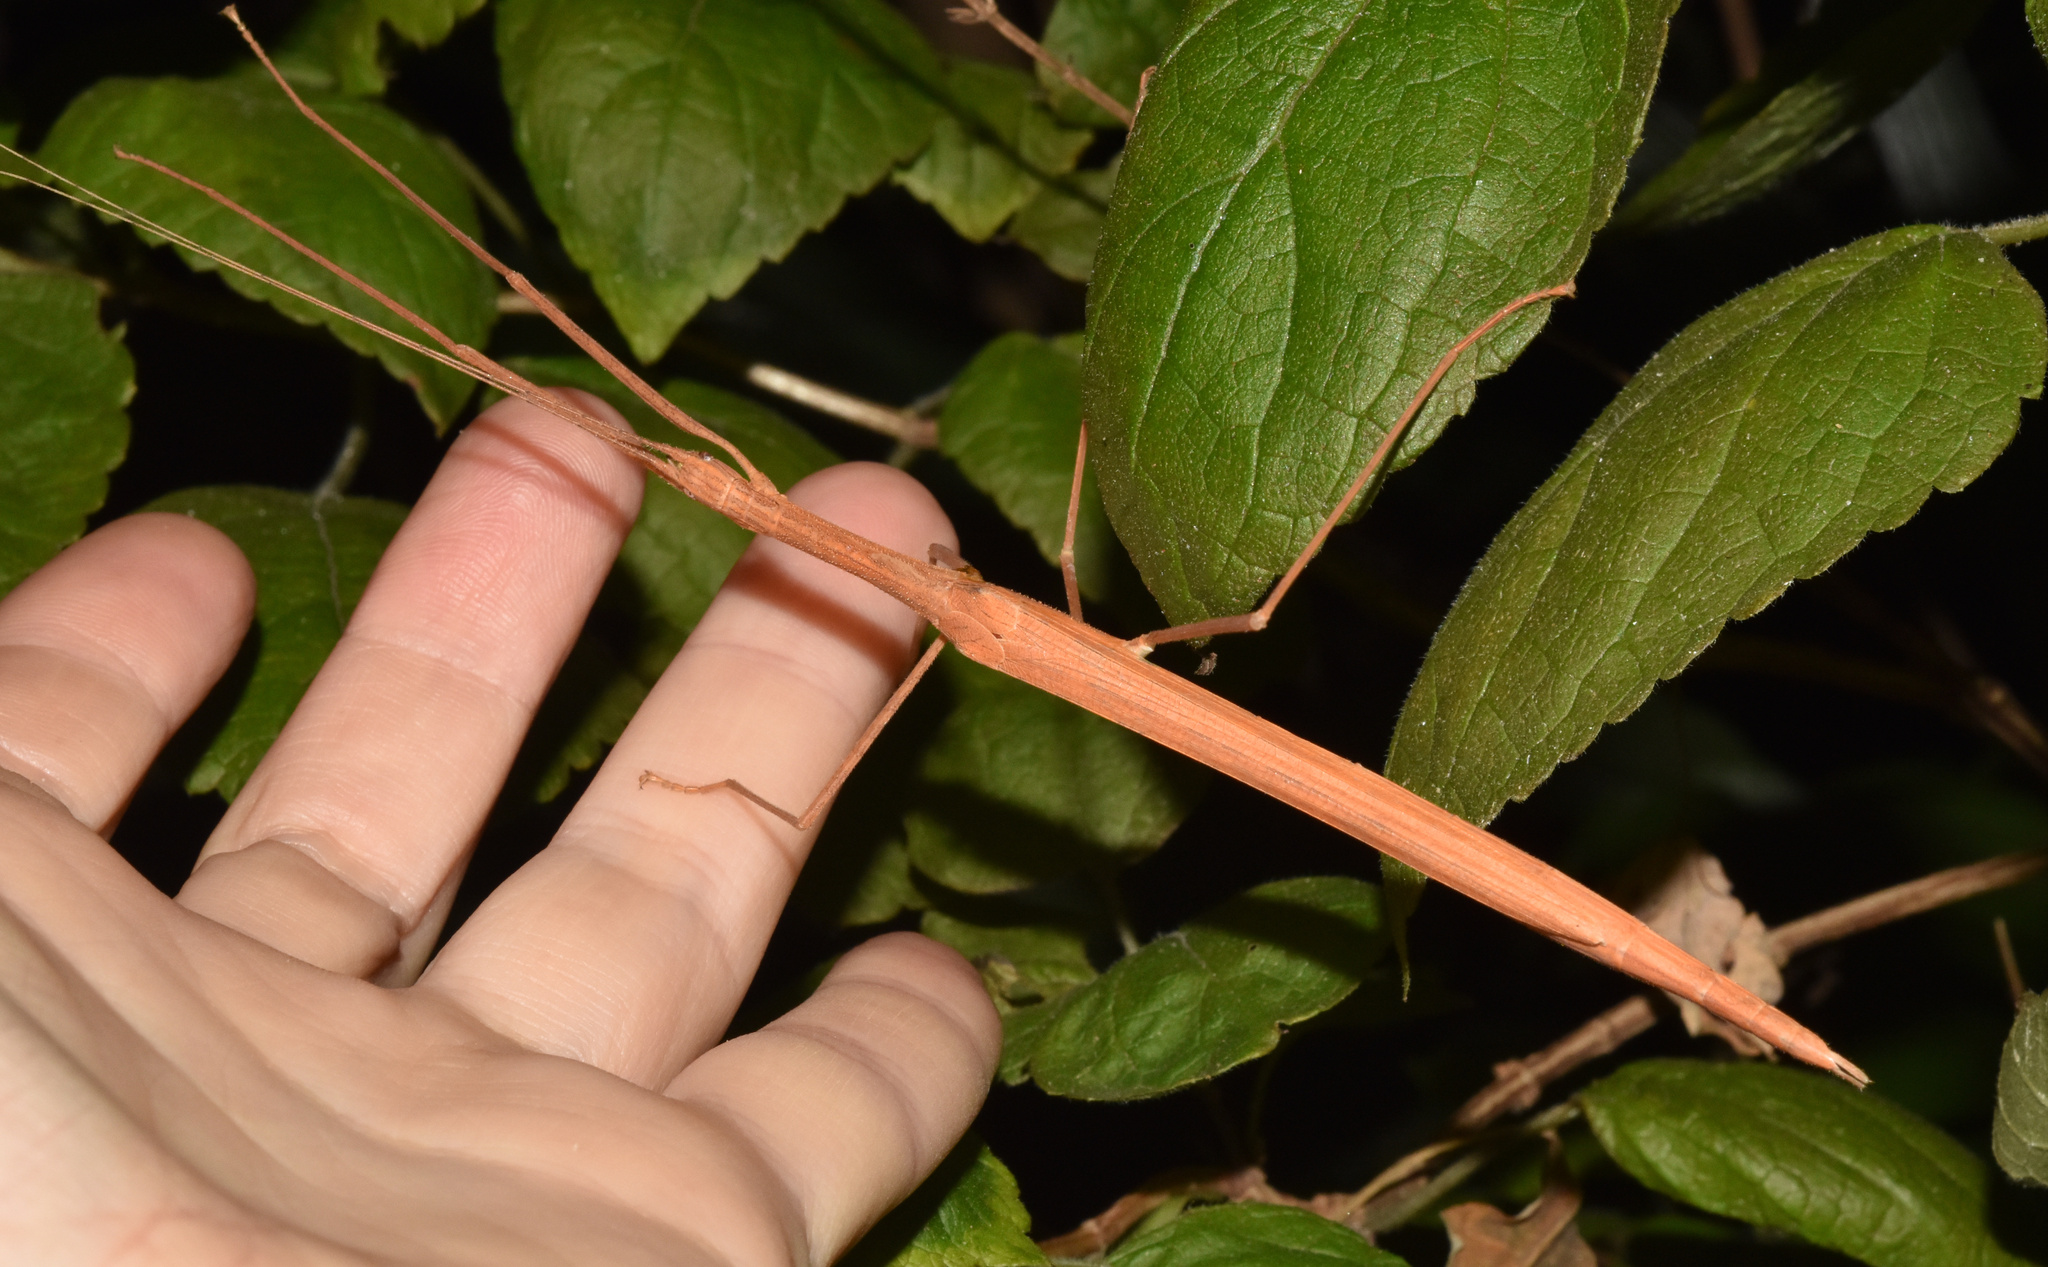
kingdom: Animalia
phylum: Arthropoda
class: Insecta
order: Phasmida
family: Lonchodidae
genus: Sipyloidea
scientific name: Sipyloidea sipylus
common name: Madagascan stick insect
